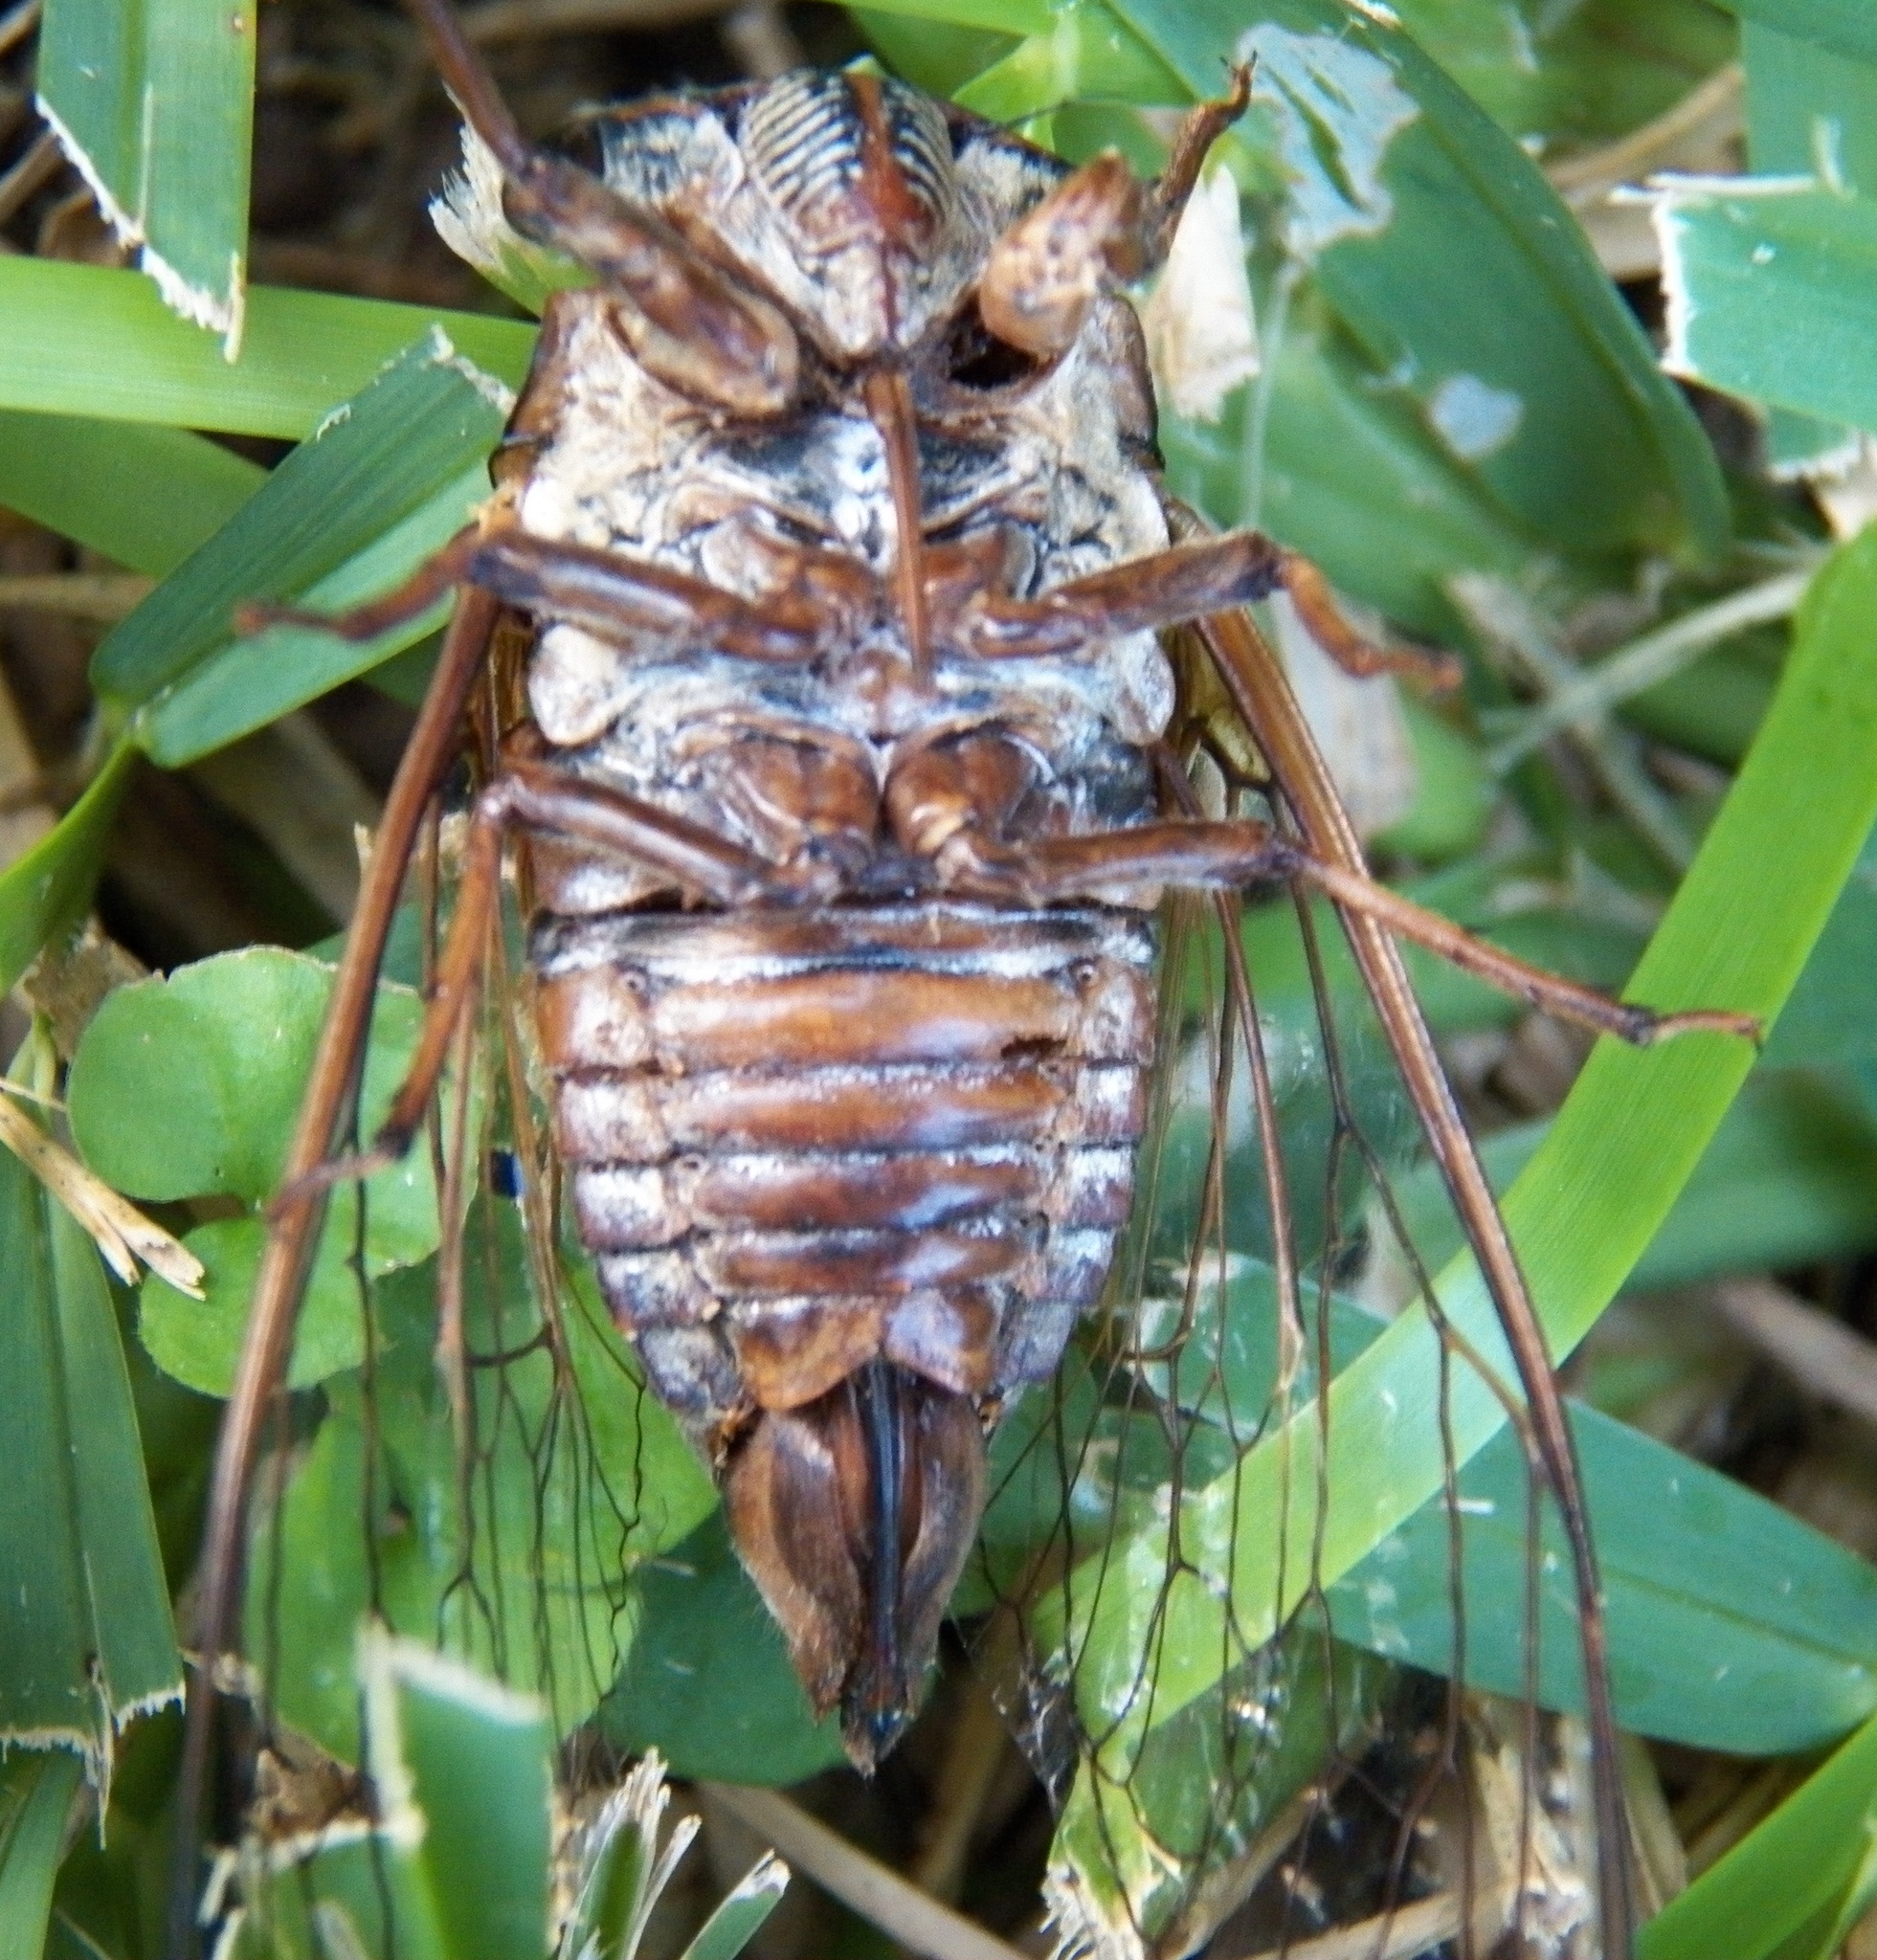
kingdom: Animalia
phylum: Arthropoda
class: Insecta
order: Hemiptera
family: Cicadidae
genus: Megatibicen
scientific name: Megatibicen resh
